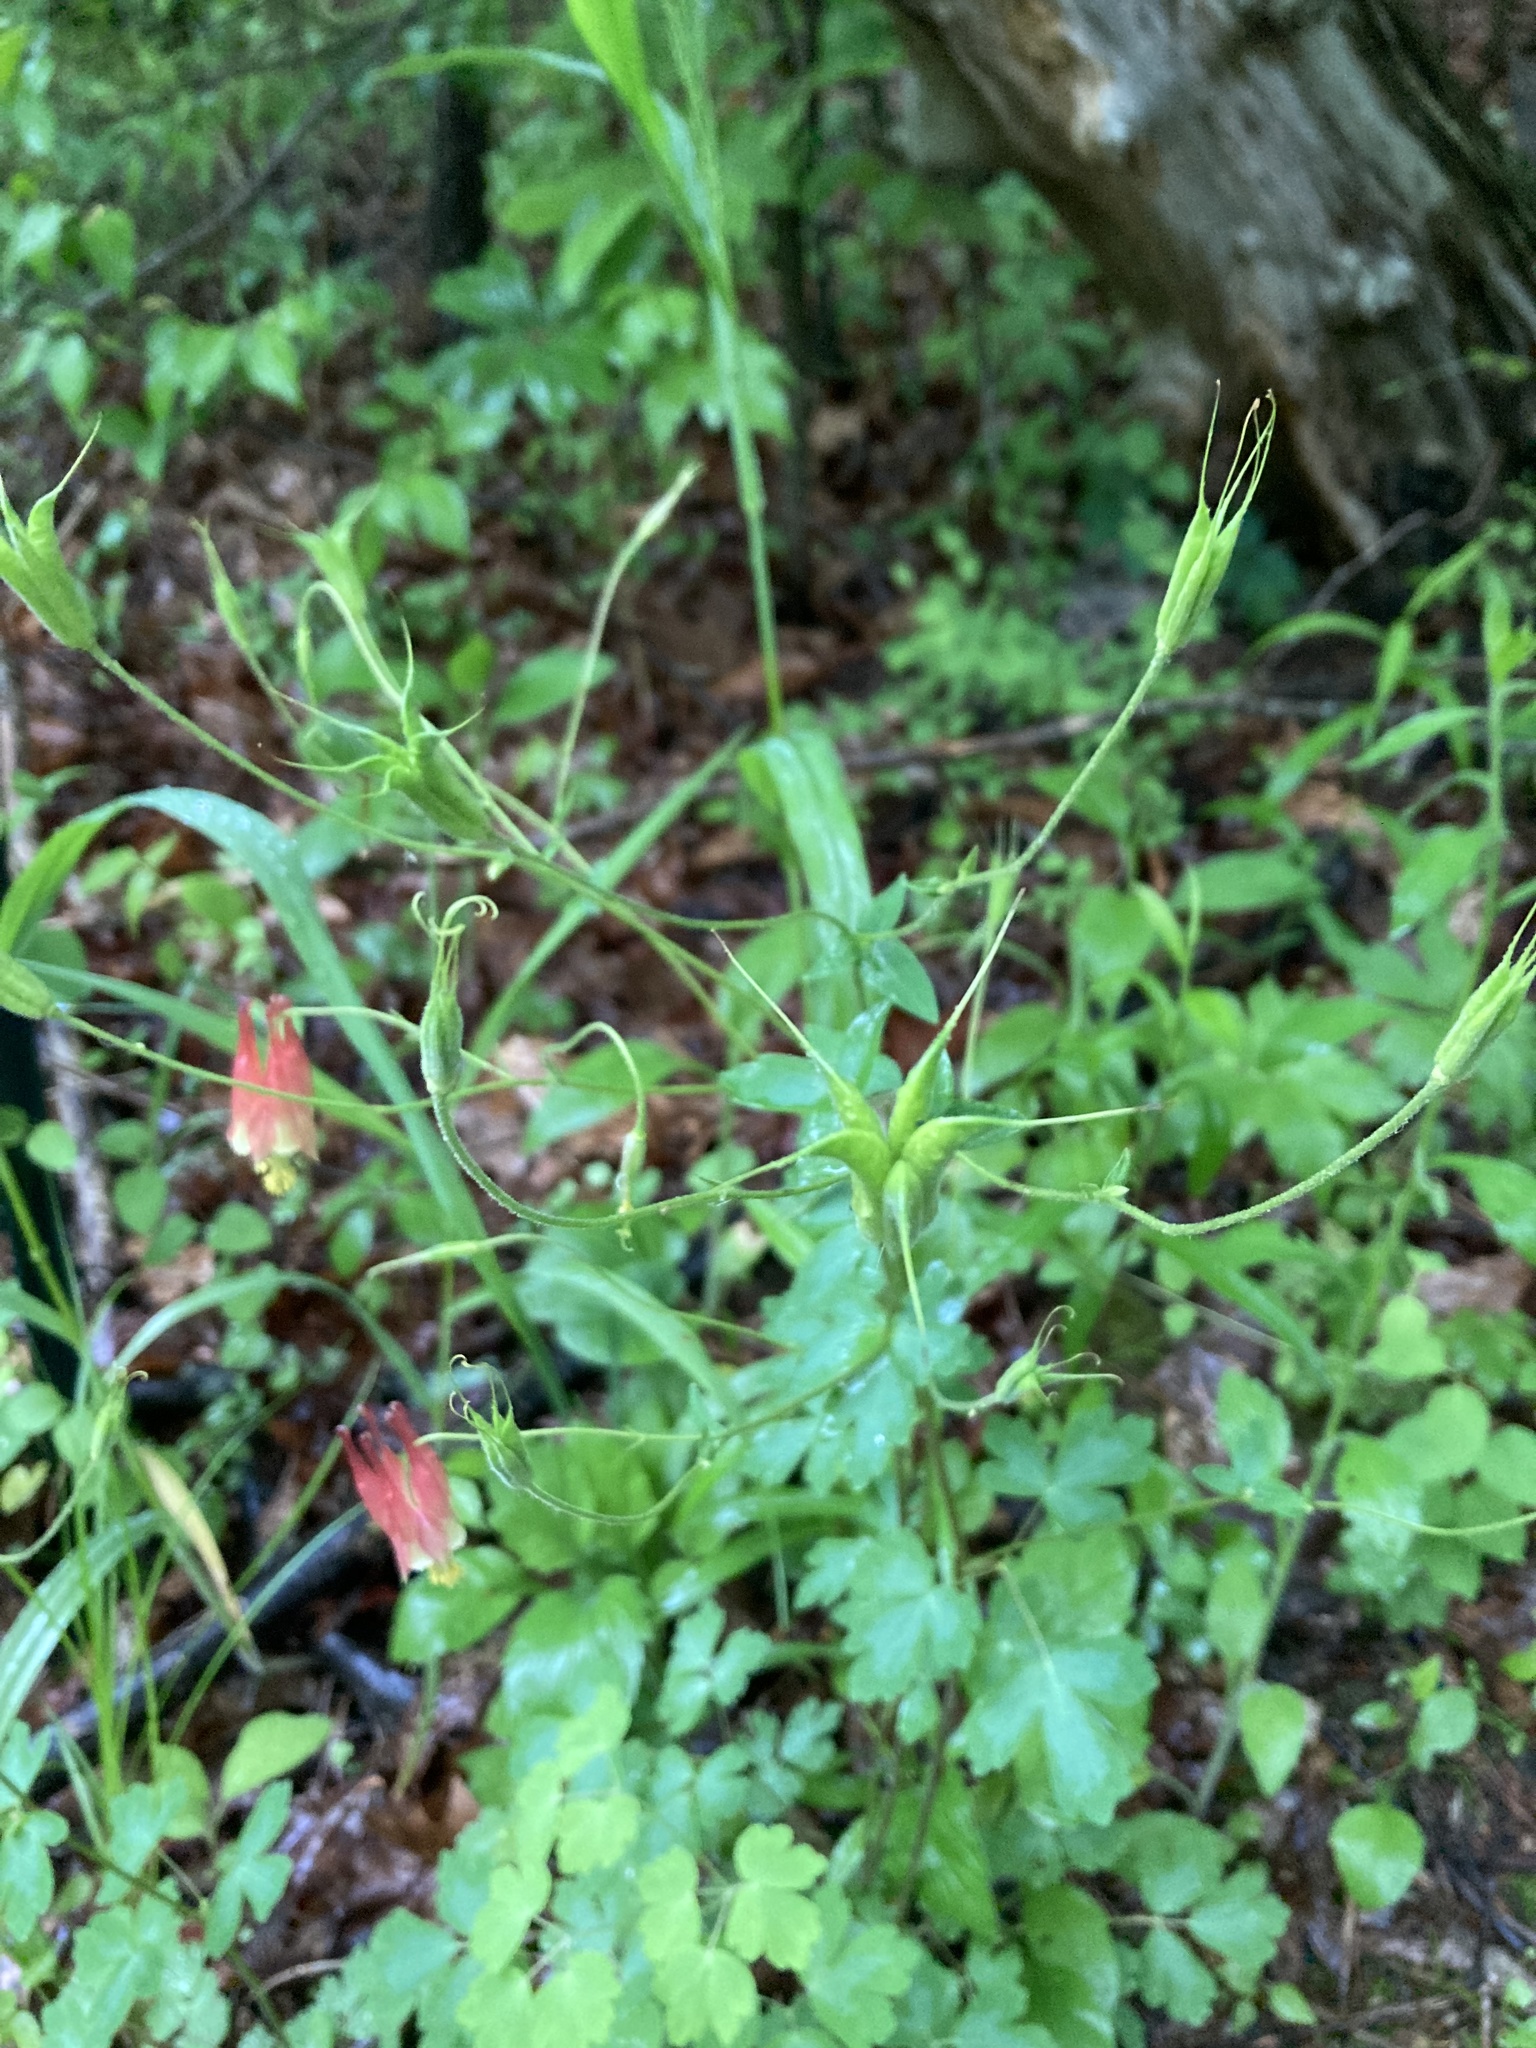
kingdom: Plantae
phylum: Tracheophyta
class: Magnoliopsida
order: Ranunculales
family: Ranunculaceae
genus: Aquilegia
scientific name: Aquilegia canadensis
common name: American columbine
